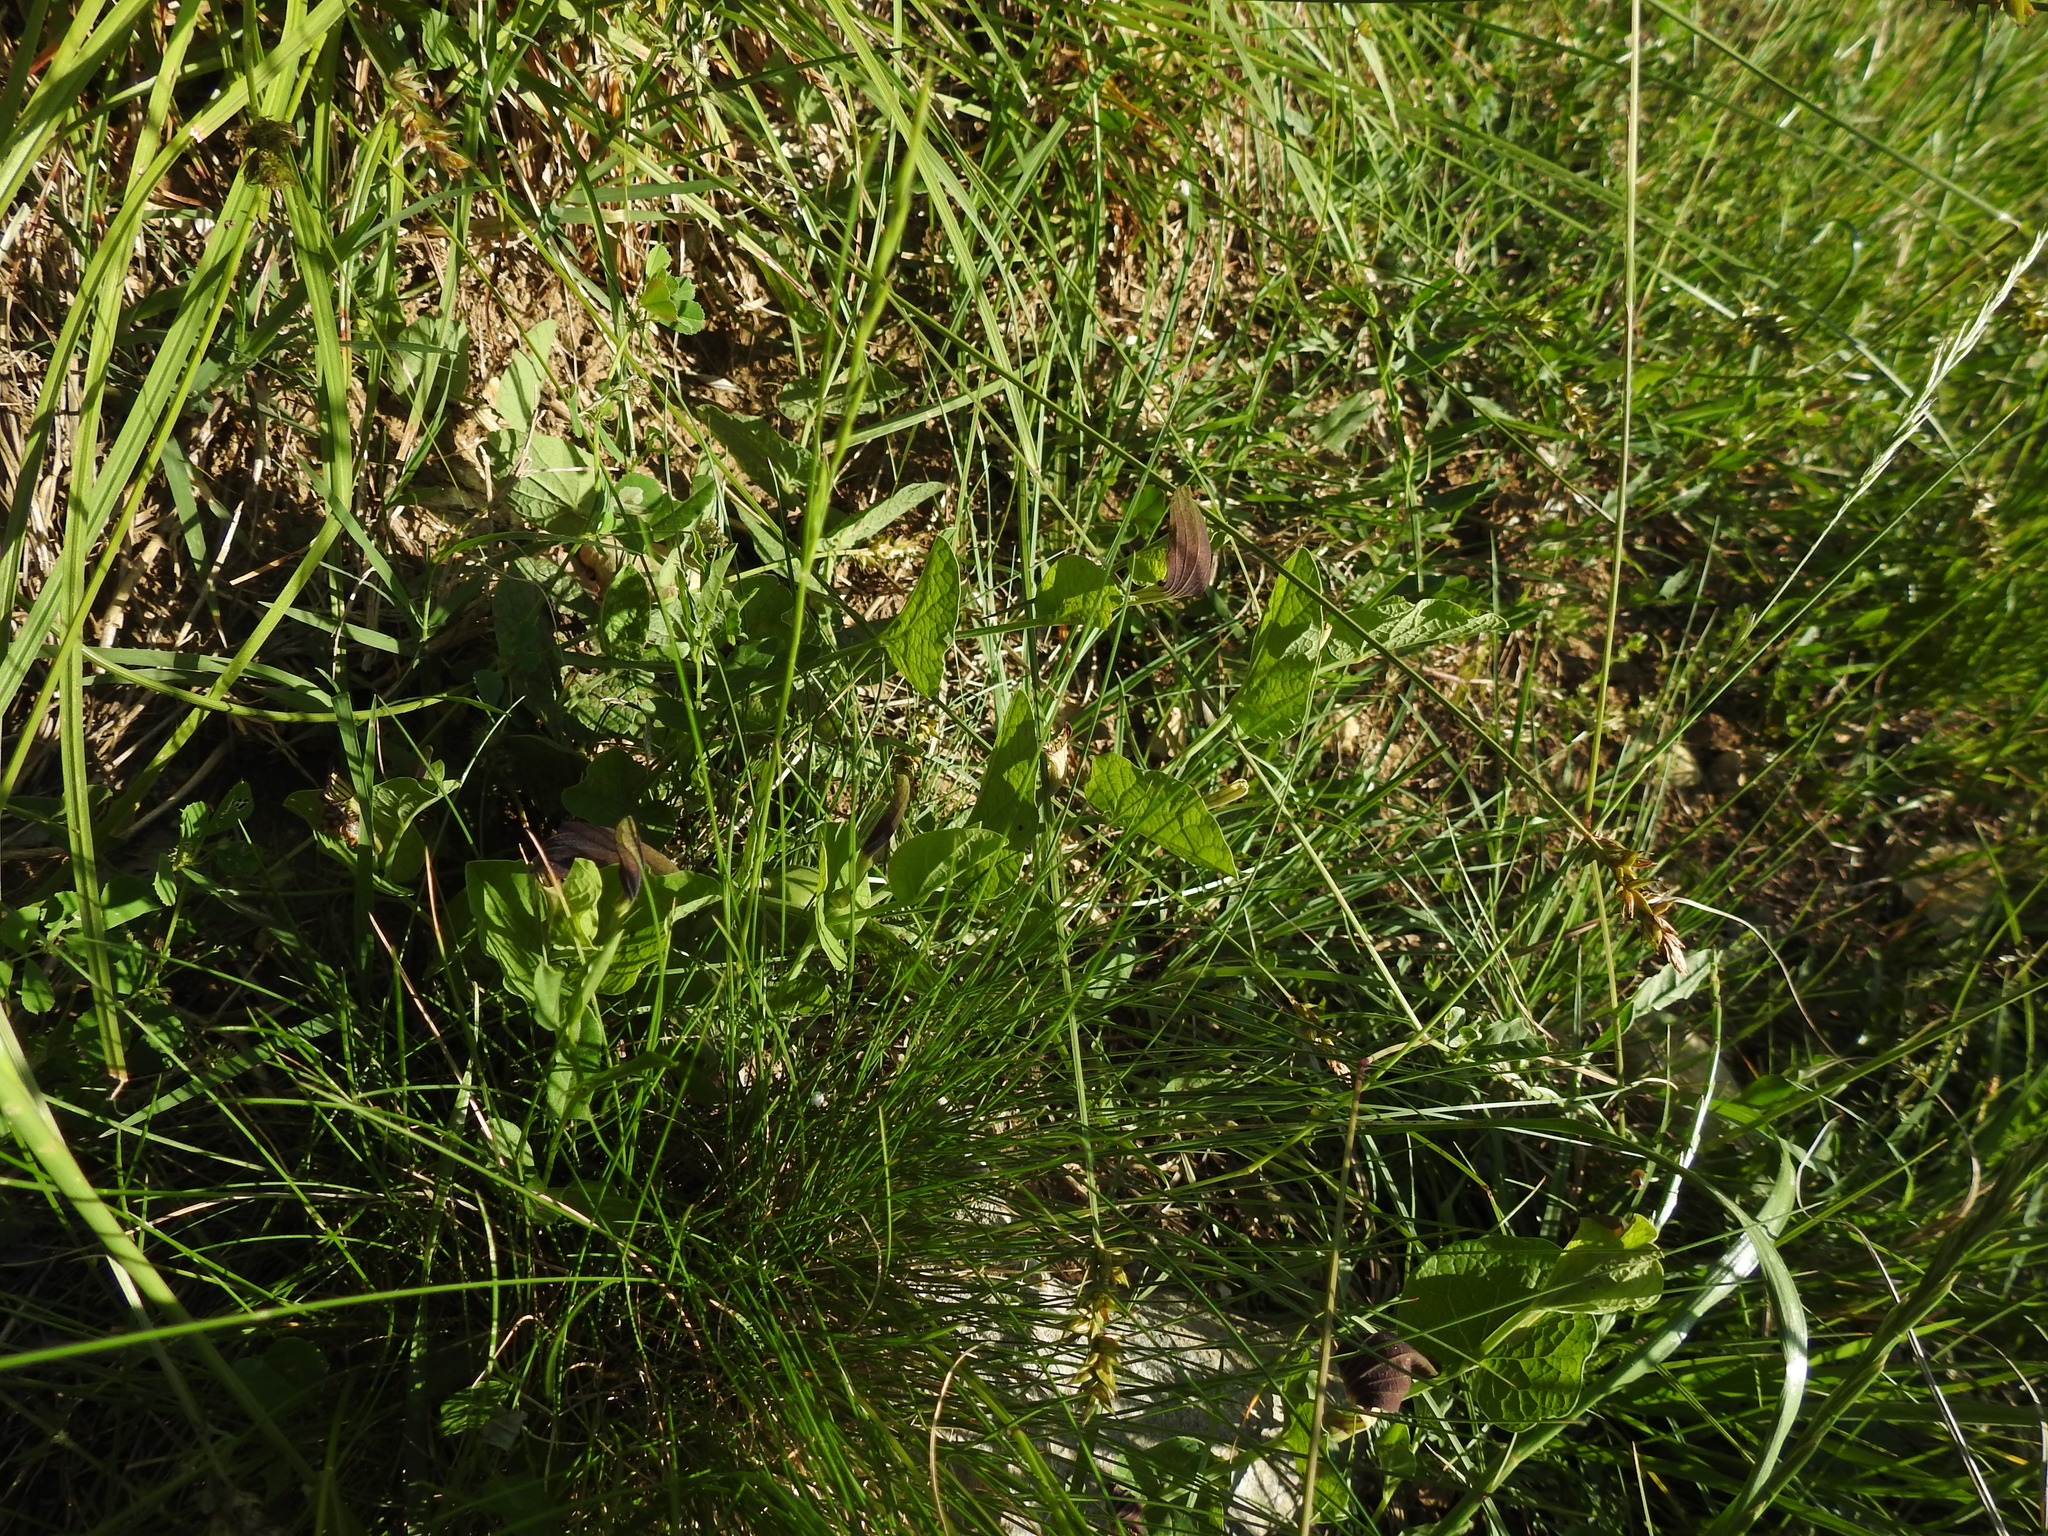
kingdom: Plantae
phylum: Tracheophyta
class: Magnoliopsida
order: Piperales
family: Aristolochiaceae
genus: Aristolochia
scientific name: Aristolochia rotunda
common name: Smearwort
